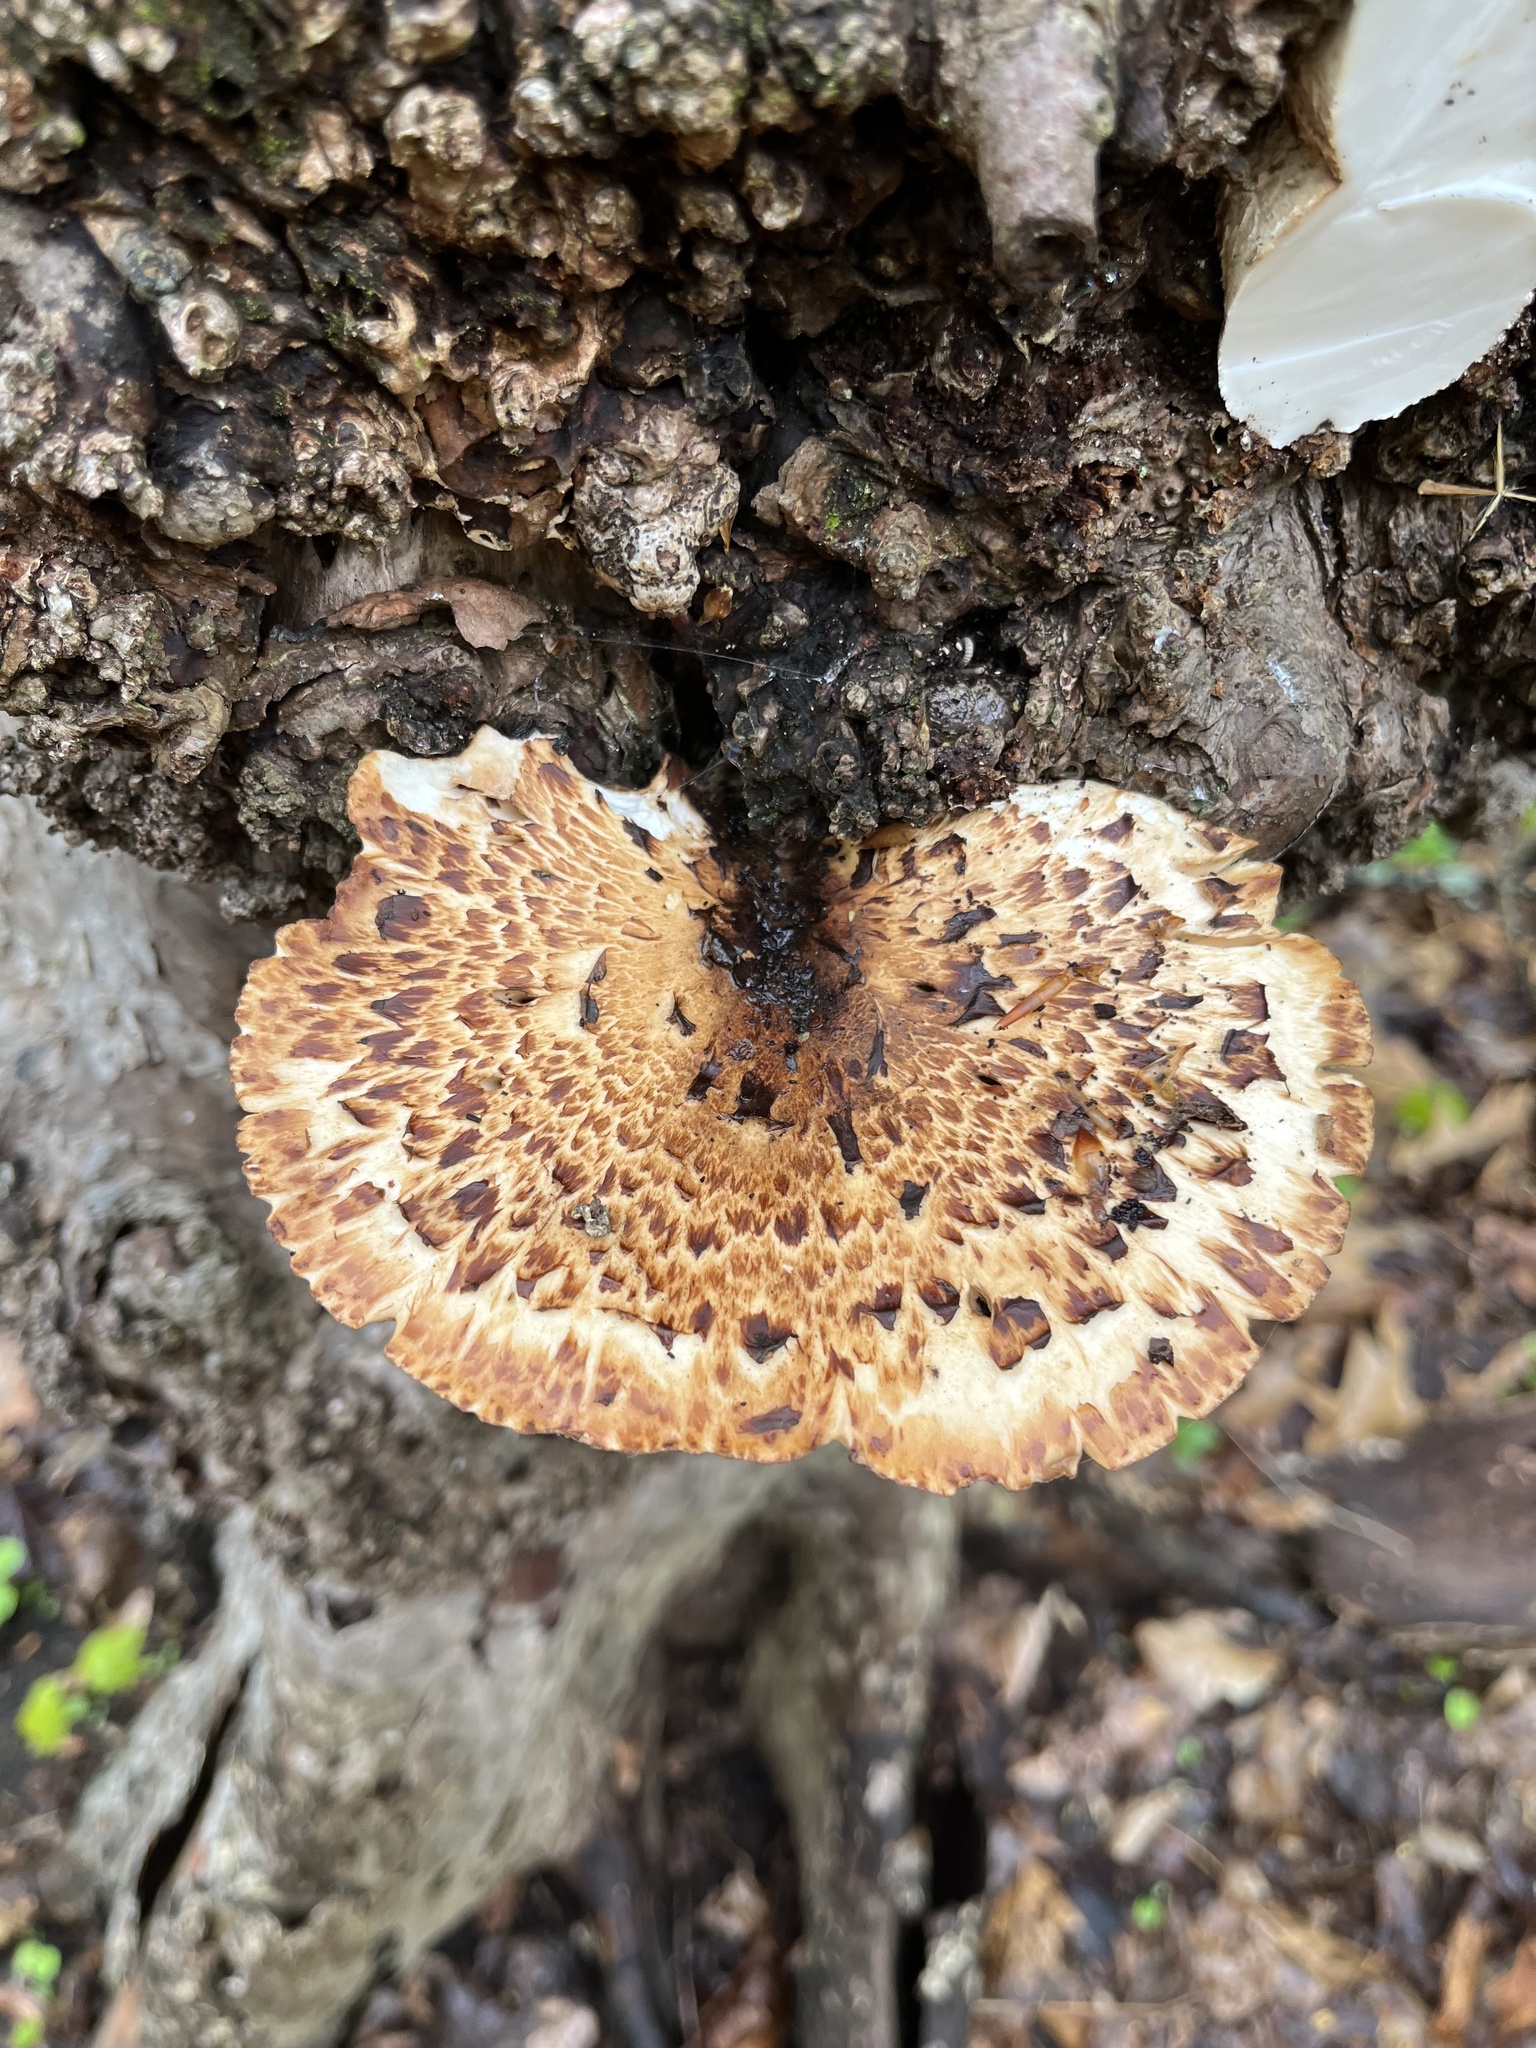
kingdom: Fungi
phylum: Basidiomycota
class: Agaricomycetes
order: Polyporales
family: Polyporaceae
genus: Cerioporus
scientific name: Cerioporus squamosus
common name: Dryad's saddle
